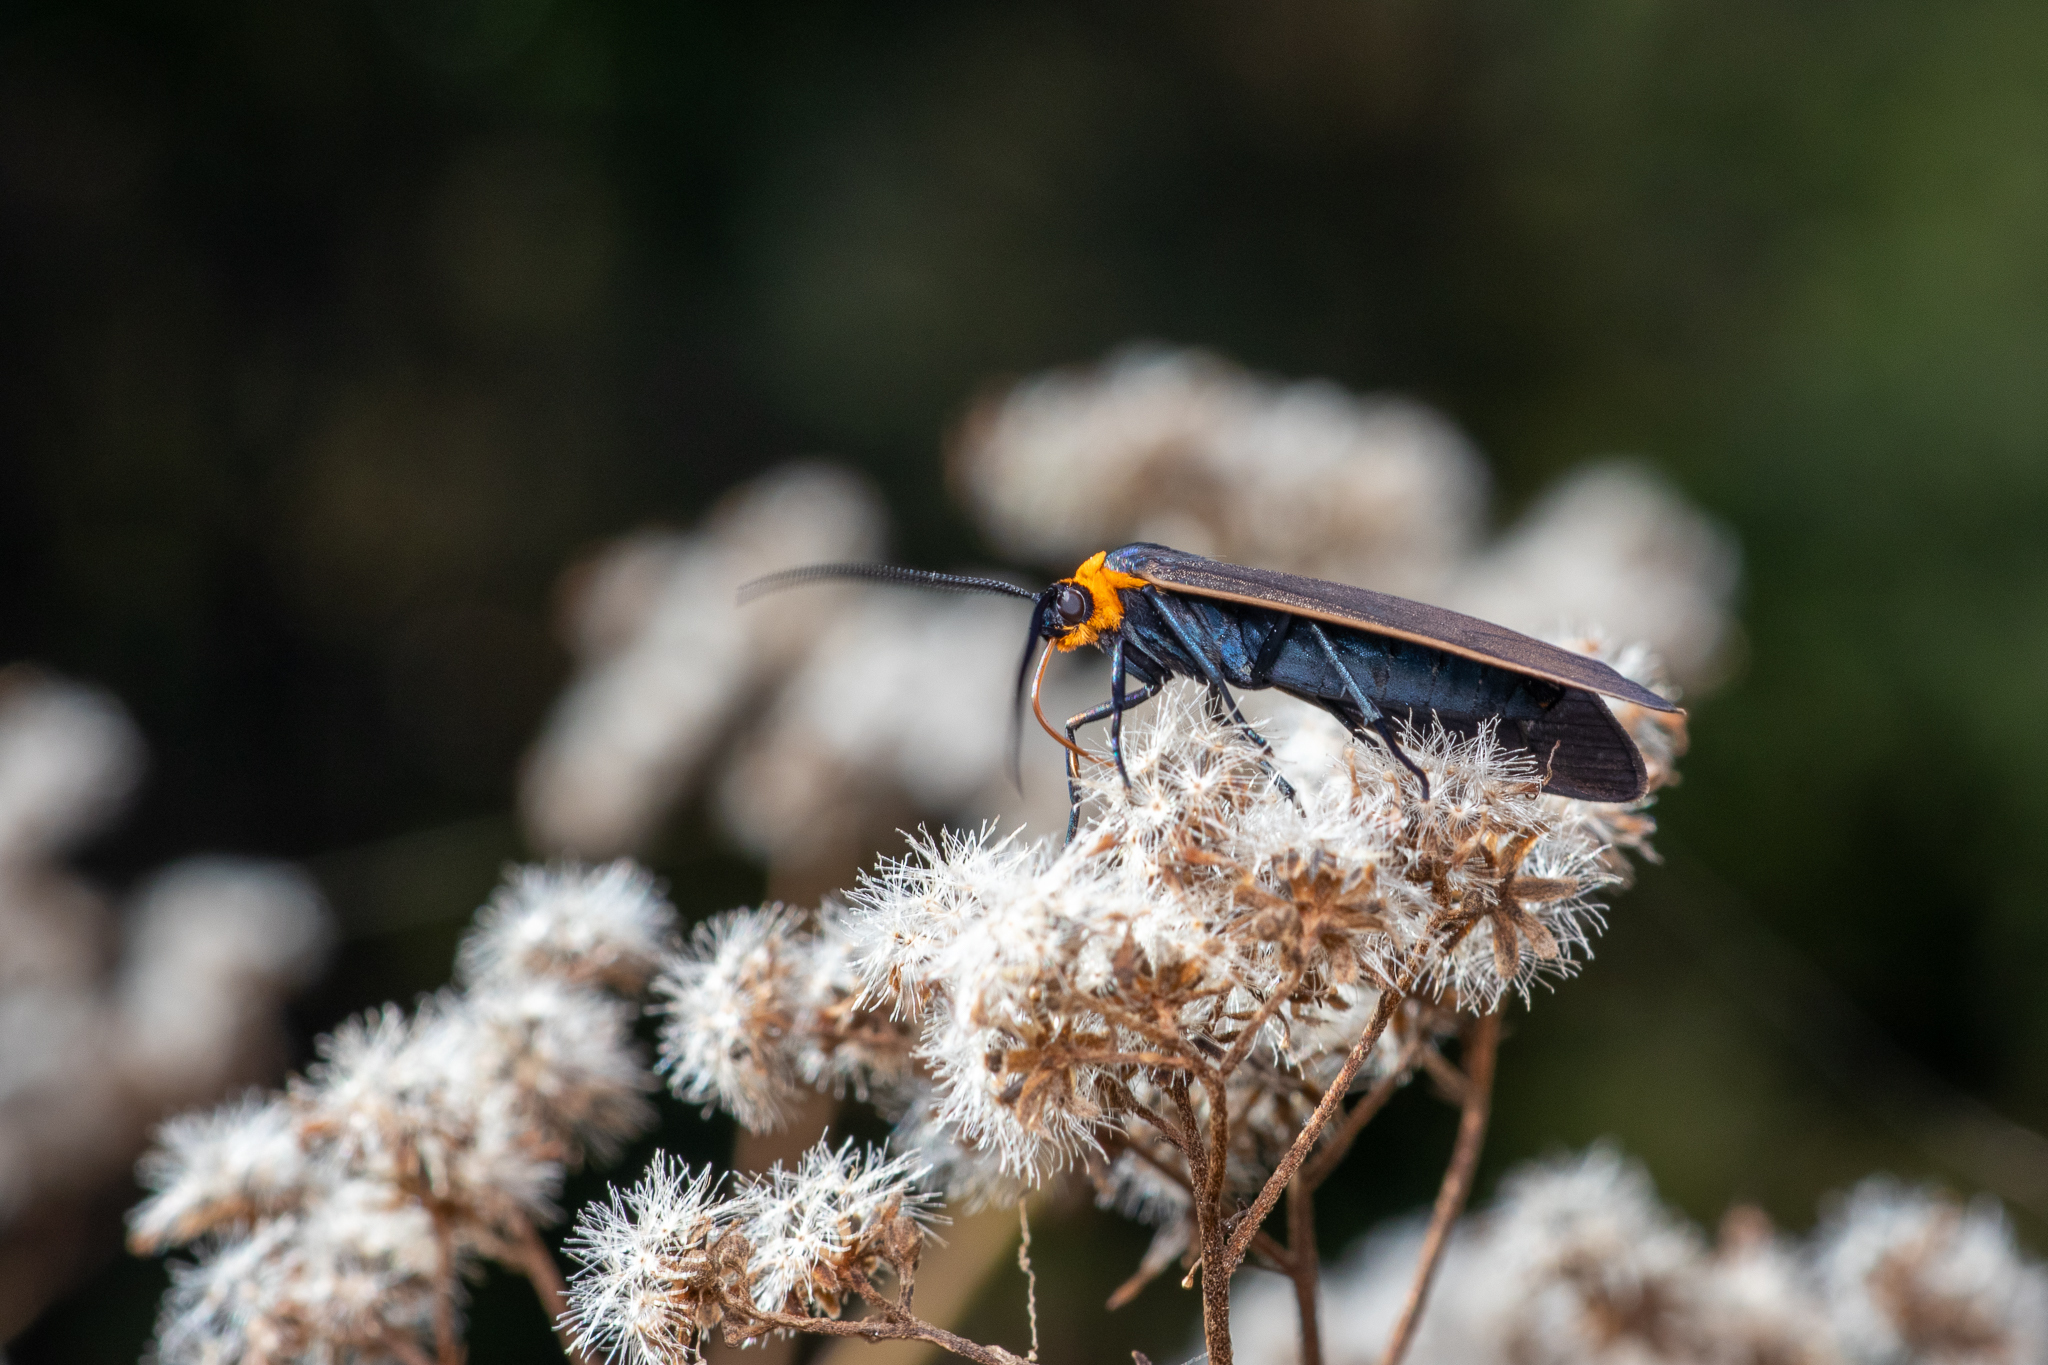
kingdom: Animalia
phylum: Arthropoda
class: Insecta
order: Lepidoptera
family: Erebidae
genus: Cisseps
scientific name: Cisseps fulvicollis
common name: Yellow-collared scape moth
